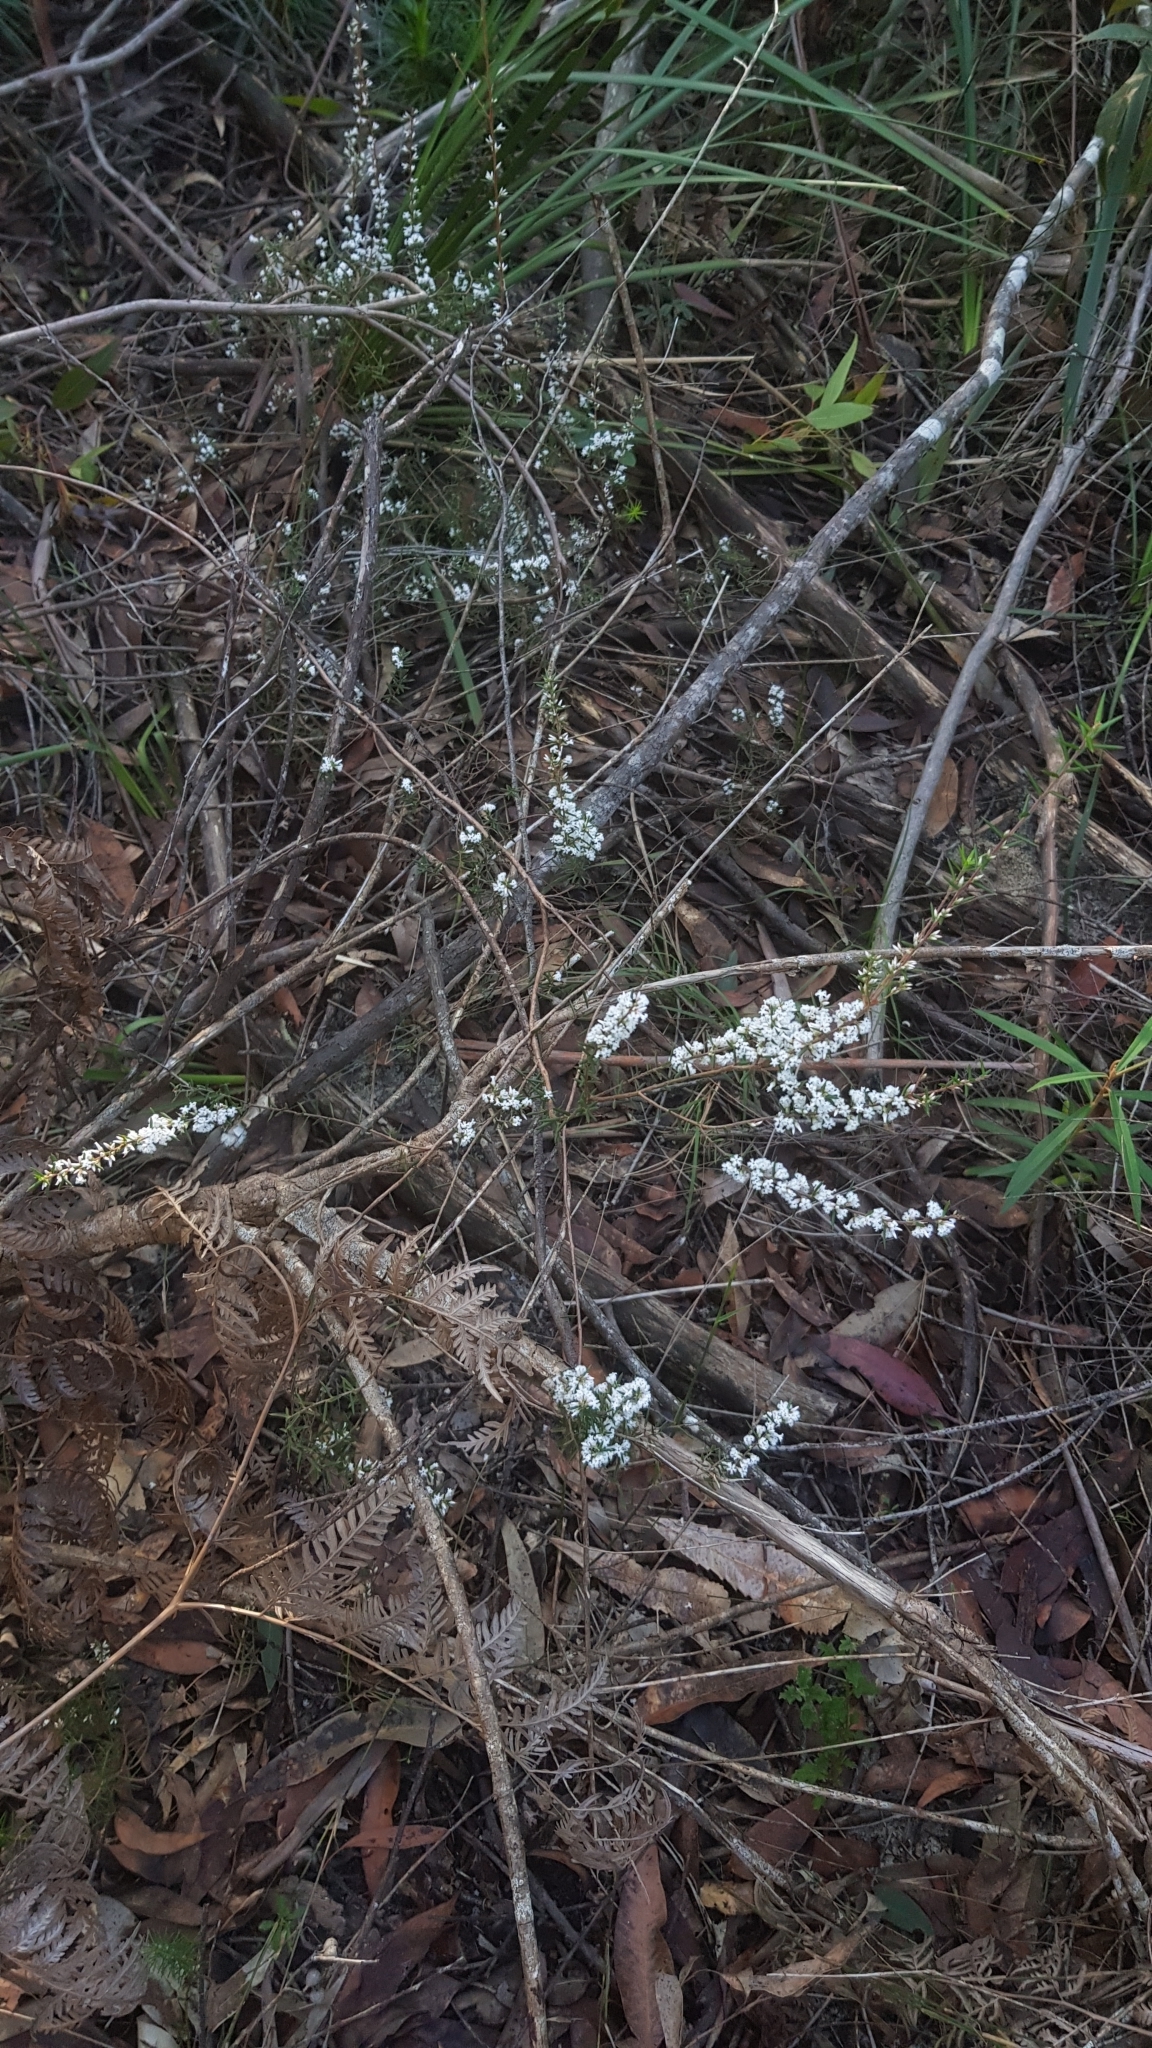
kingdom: Plantae
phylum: Tracheophyta
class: Magnoliopsida
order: Ericales
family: Ericaceae
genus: Styphelia
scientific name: Styphelia ericoides
